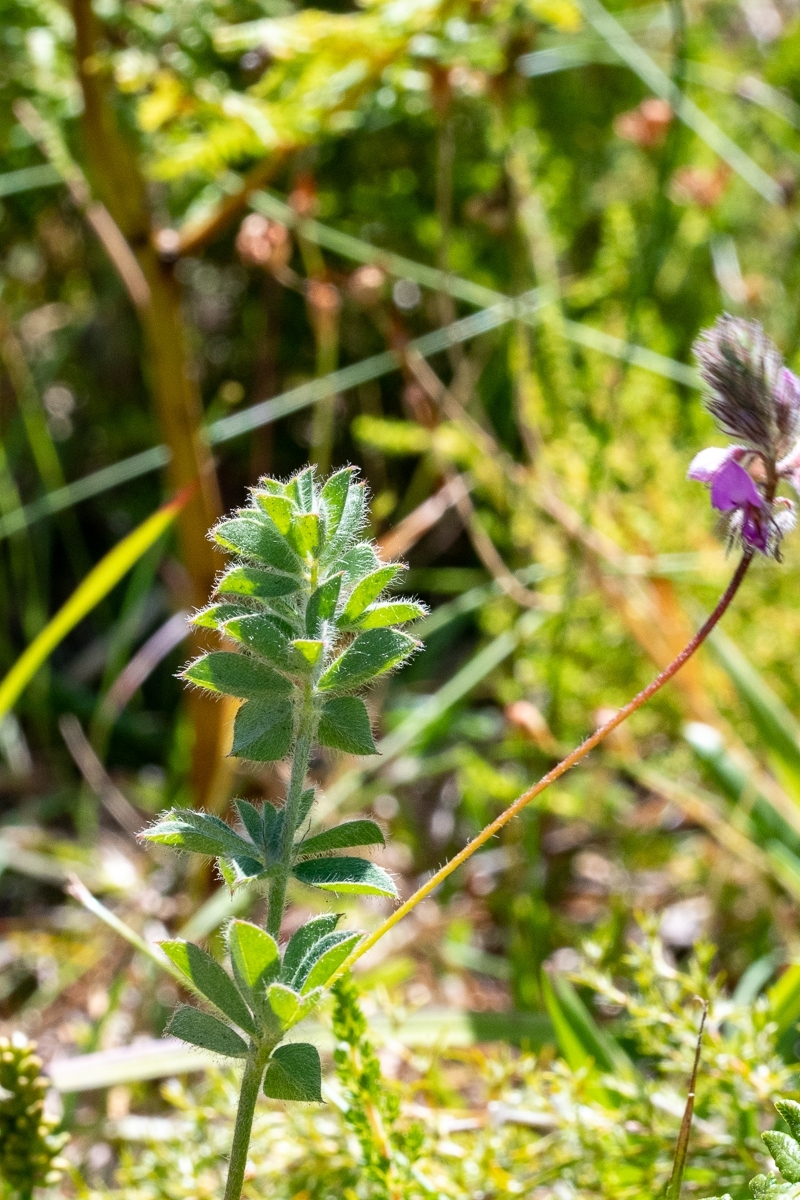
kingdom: Plantae
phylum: Tracheophyta
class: Magnoliopsida
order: Fabales
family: Fabaceae
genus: Indigofera
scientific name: Indigofera alopecuroides
